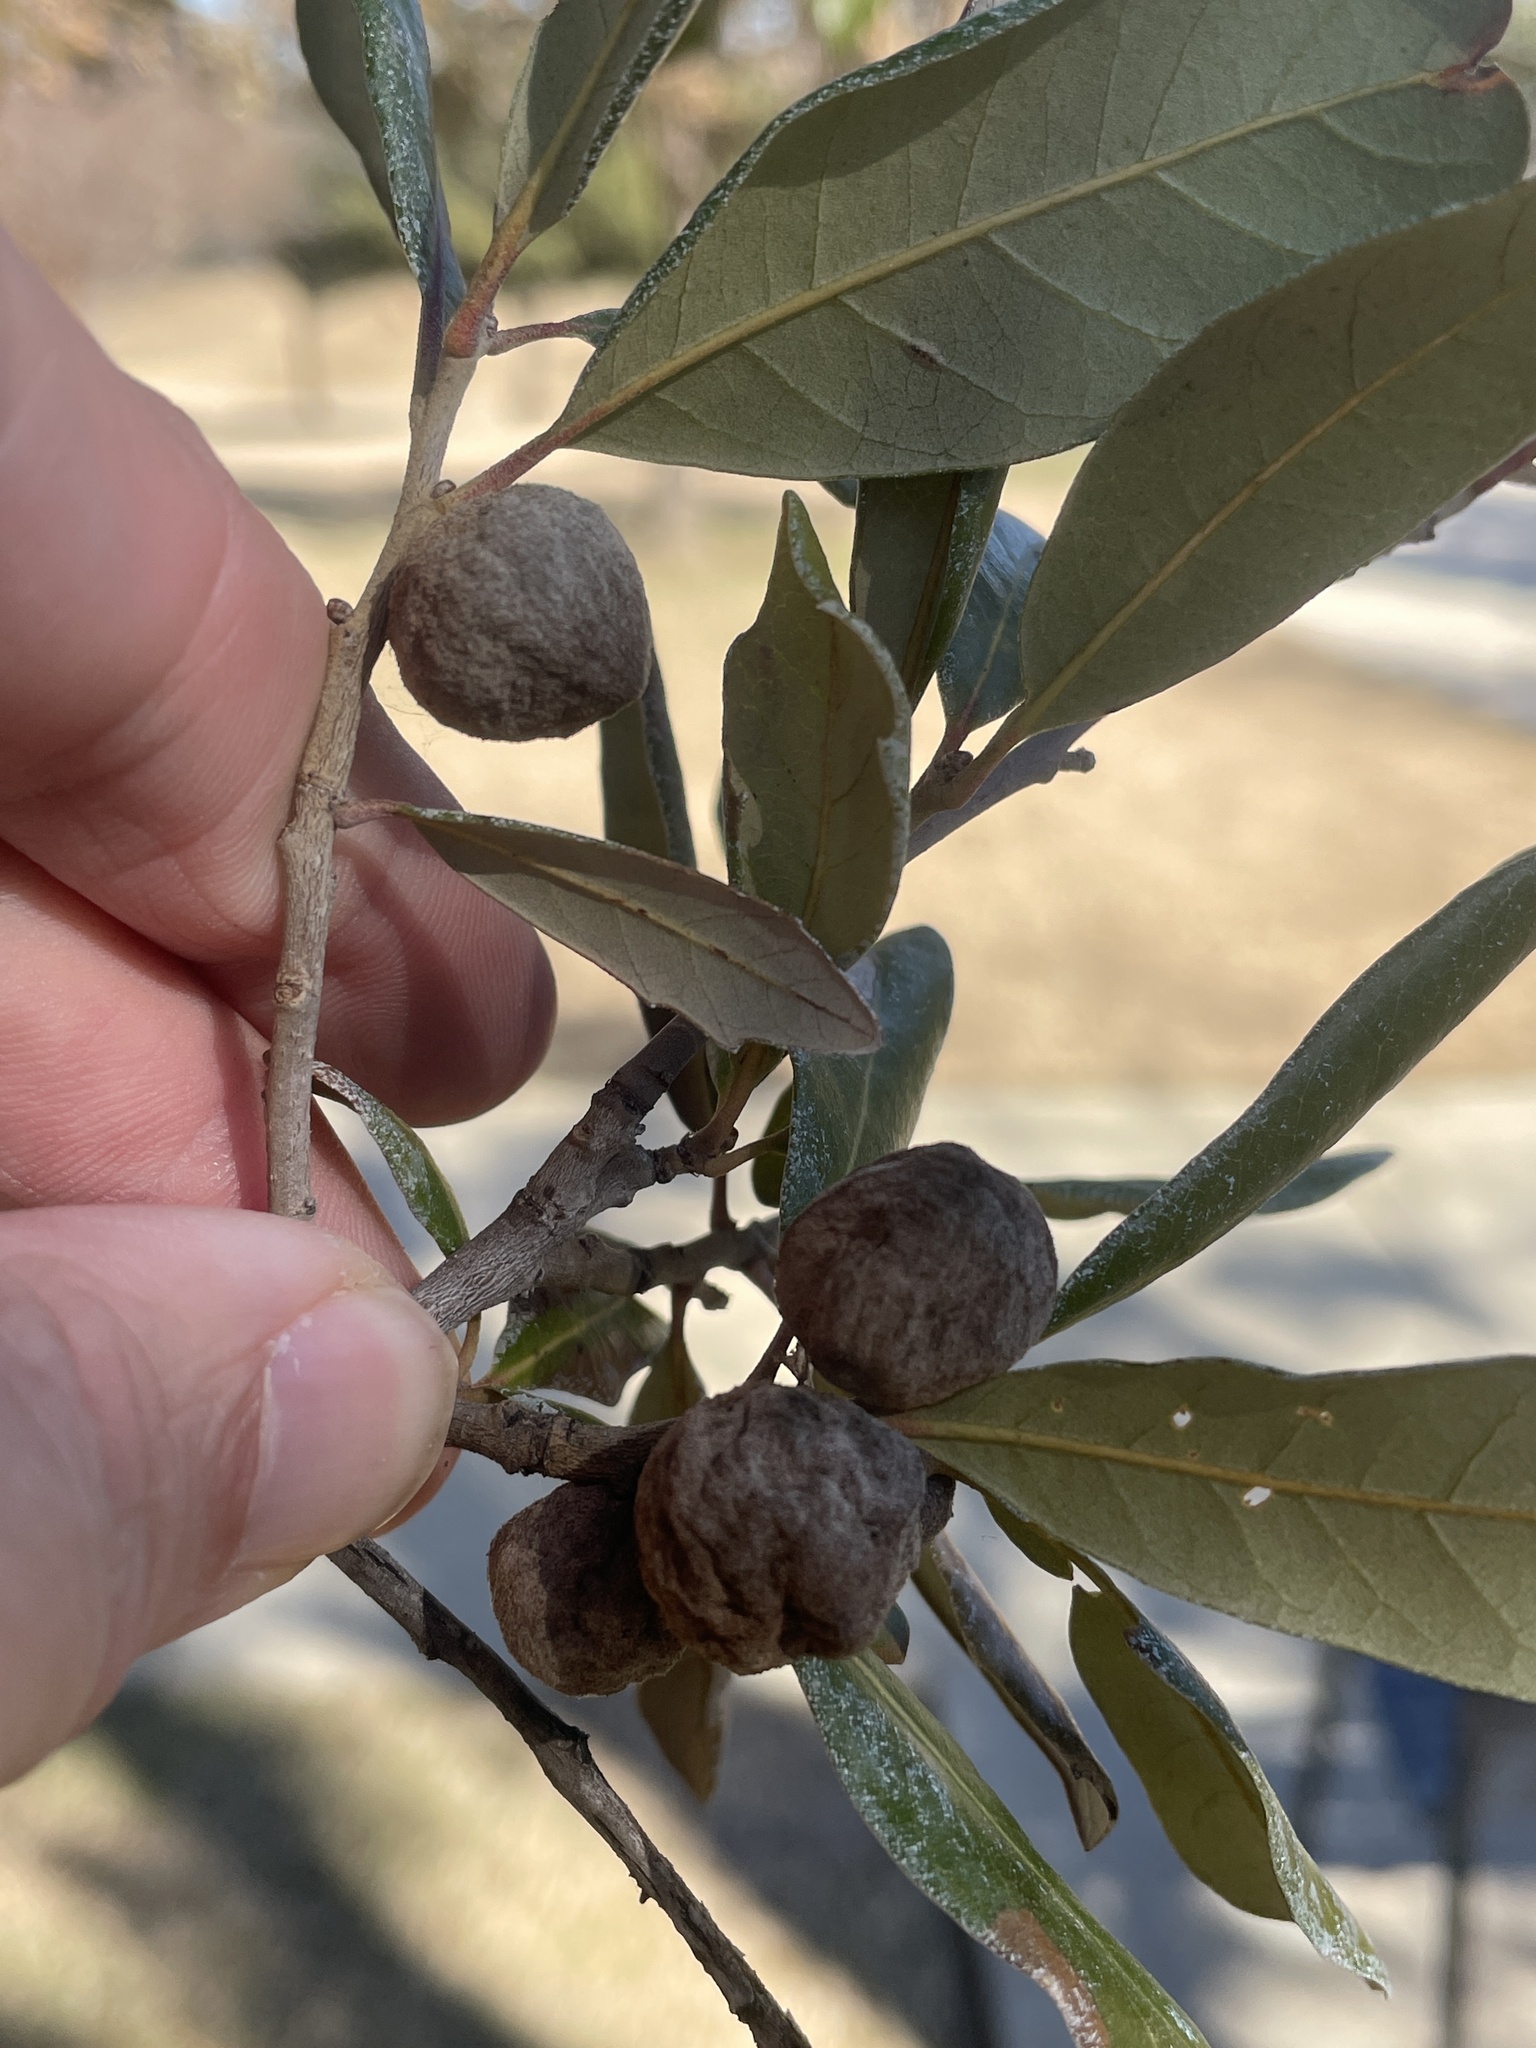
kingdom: Animalia
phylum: Arthropoda
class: Insecta
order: Hymenoptera
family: Cynipidae
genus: Disholcaspis
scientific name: Disholcaspis
